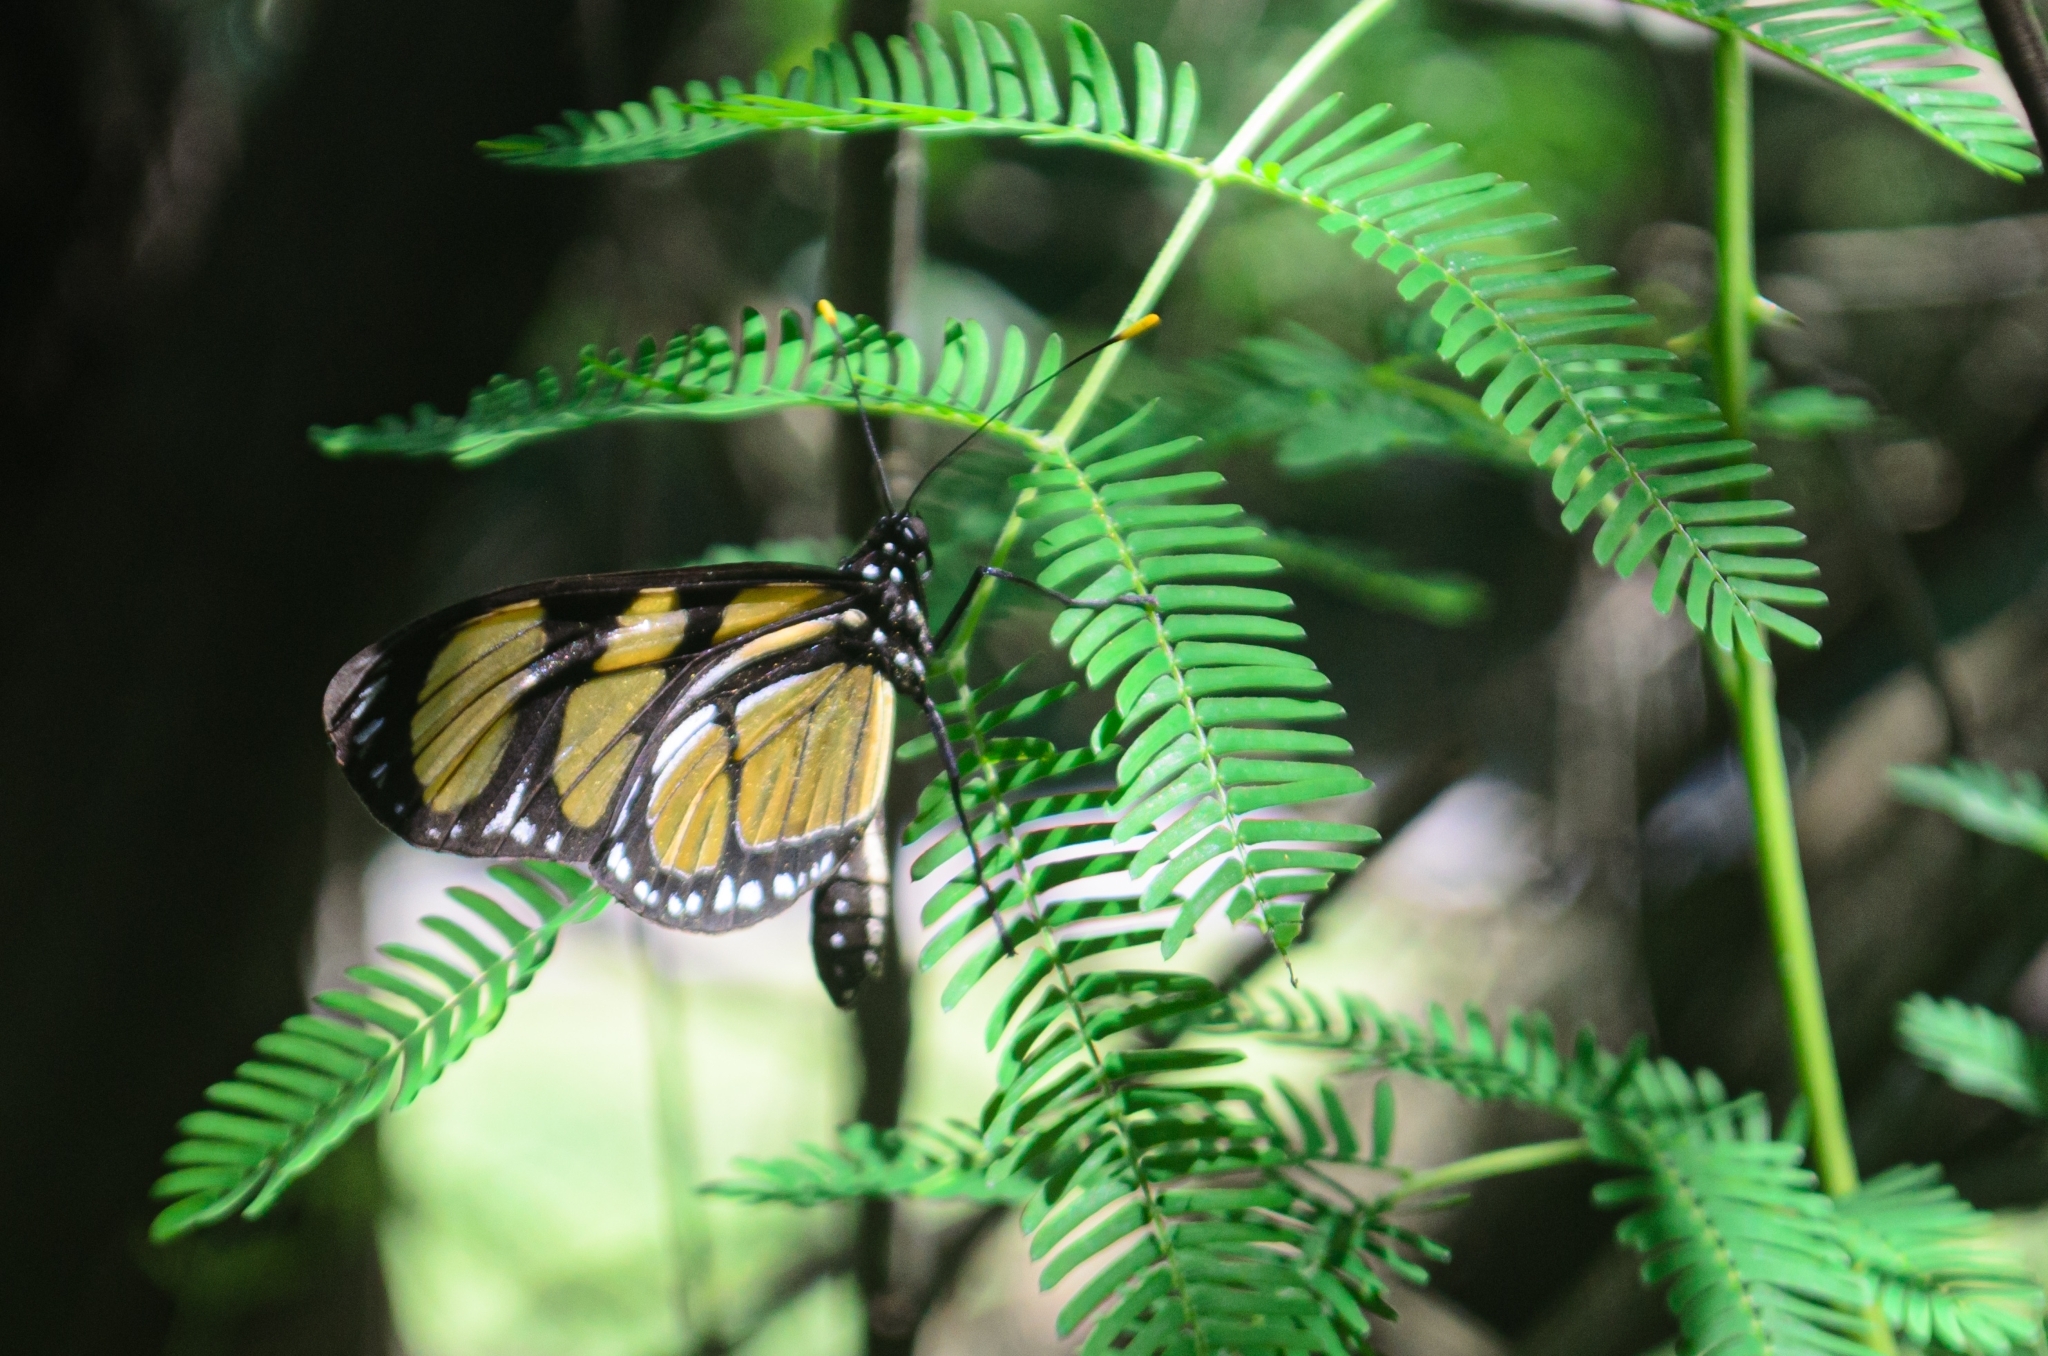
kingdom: Animalia
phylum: Arthropoda
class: Insecta
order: Lepidoptera
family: Nymphalidae
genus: Methona
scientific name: Methona themisto
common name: Themisto amberwing
